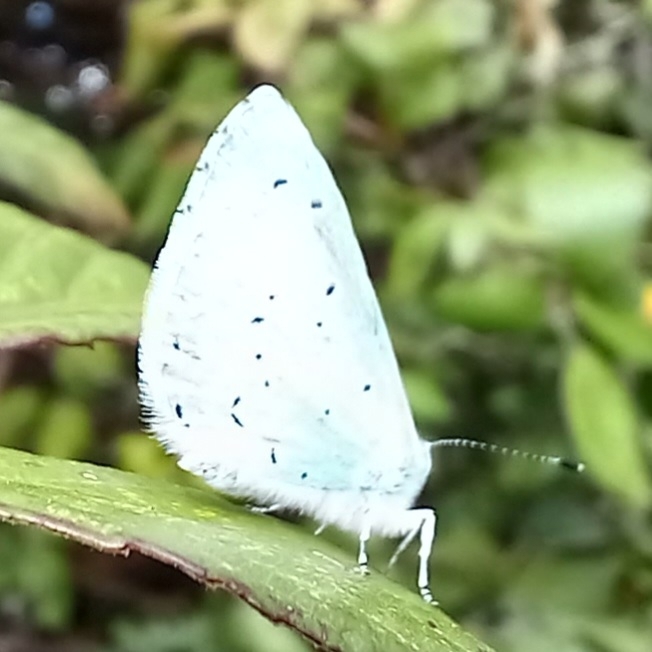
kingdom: Animalia
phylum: Arthropoda
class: Insecta
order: Lepidoptera
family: Lycaenidae
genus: Celastrina
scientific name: Celastrina argiolus
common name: Holly blue
